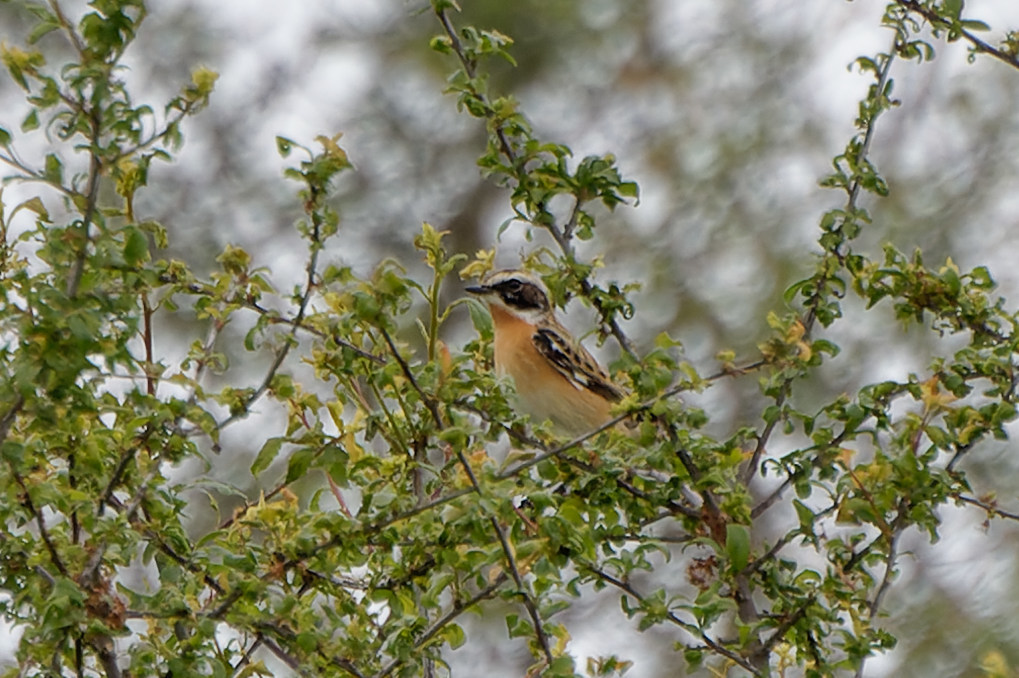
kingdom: Animalia
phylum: Chordata
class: Aves
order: Passeriformes
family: Muscicapidae
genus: Saxicola
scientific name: Saxicola rubetra
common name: Whinchat
